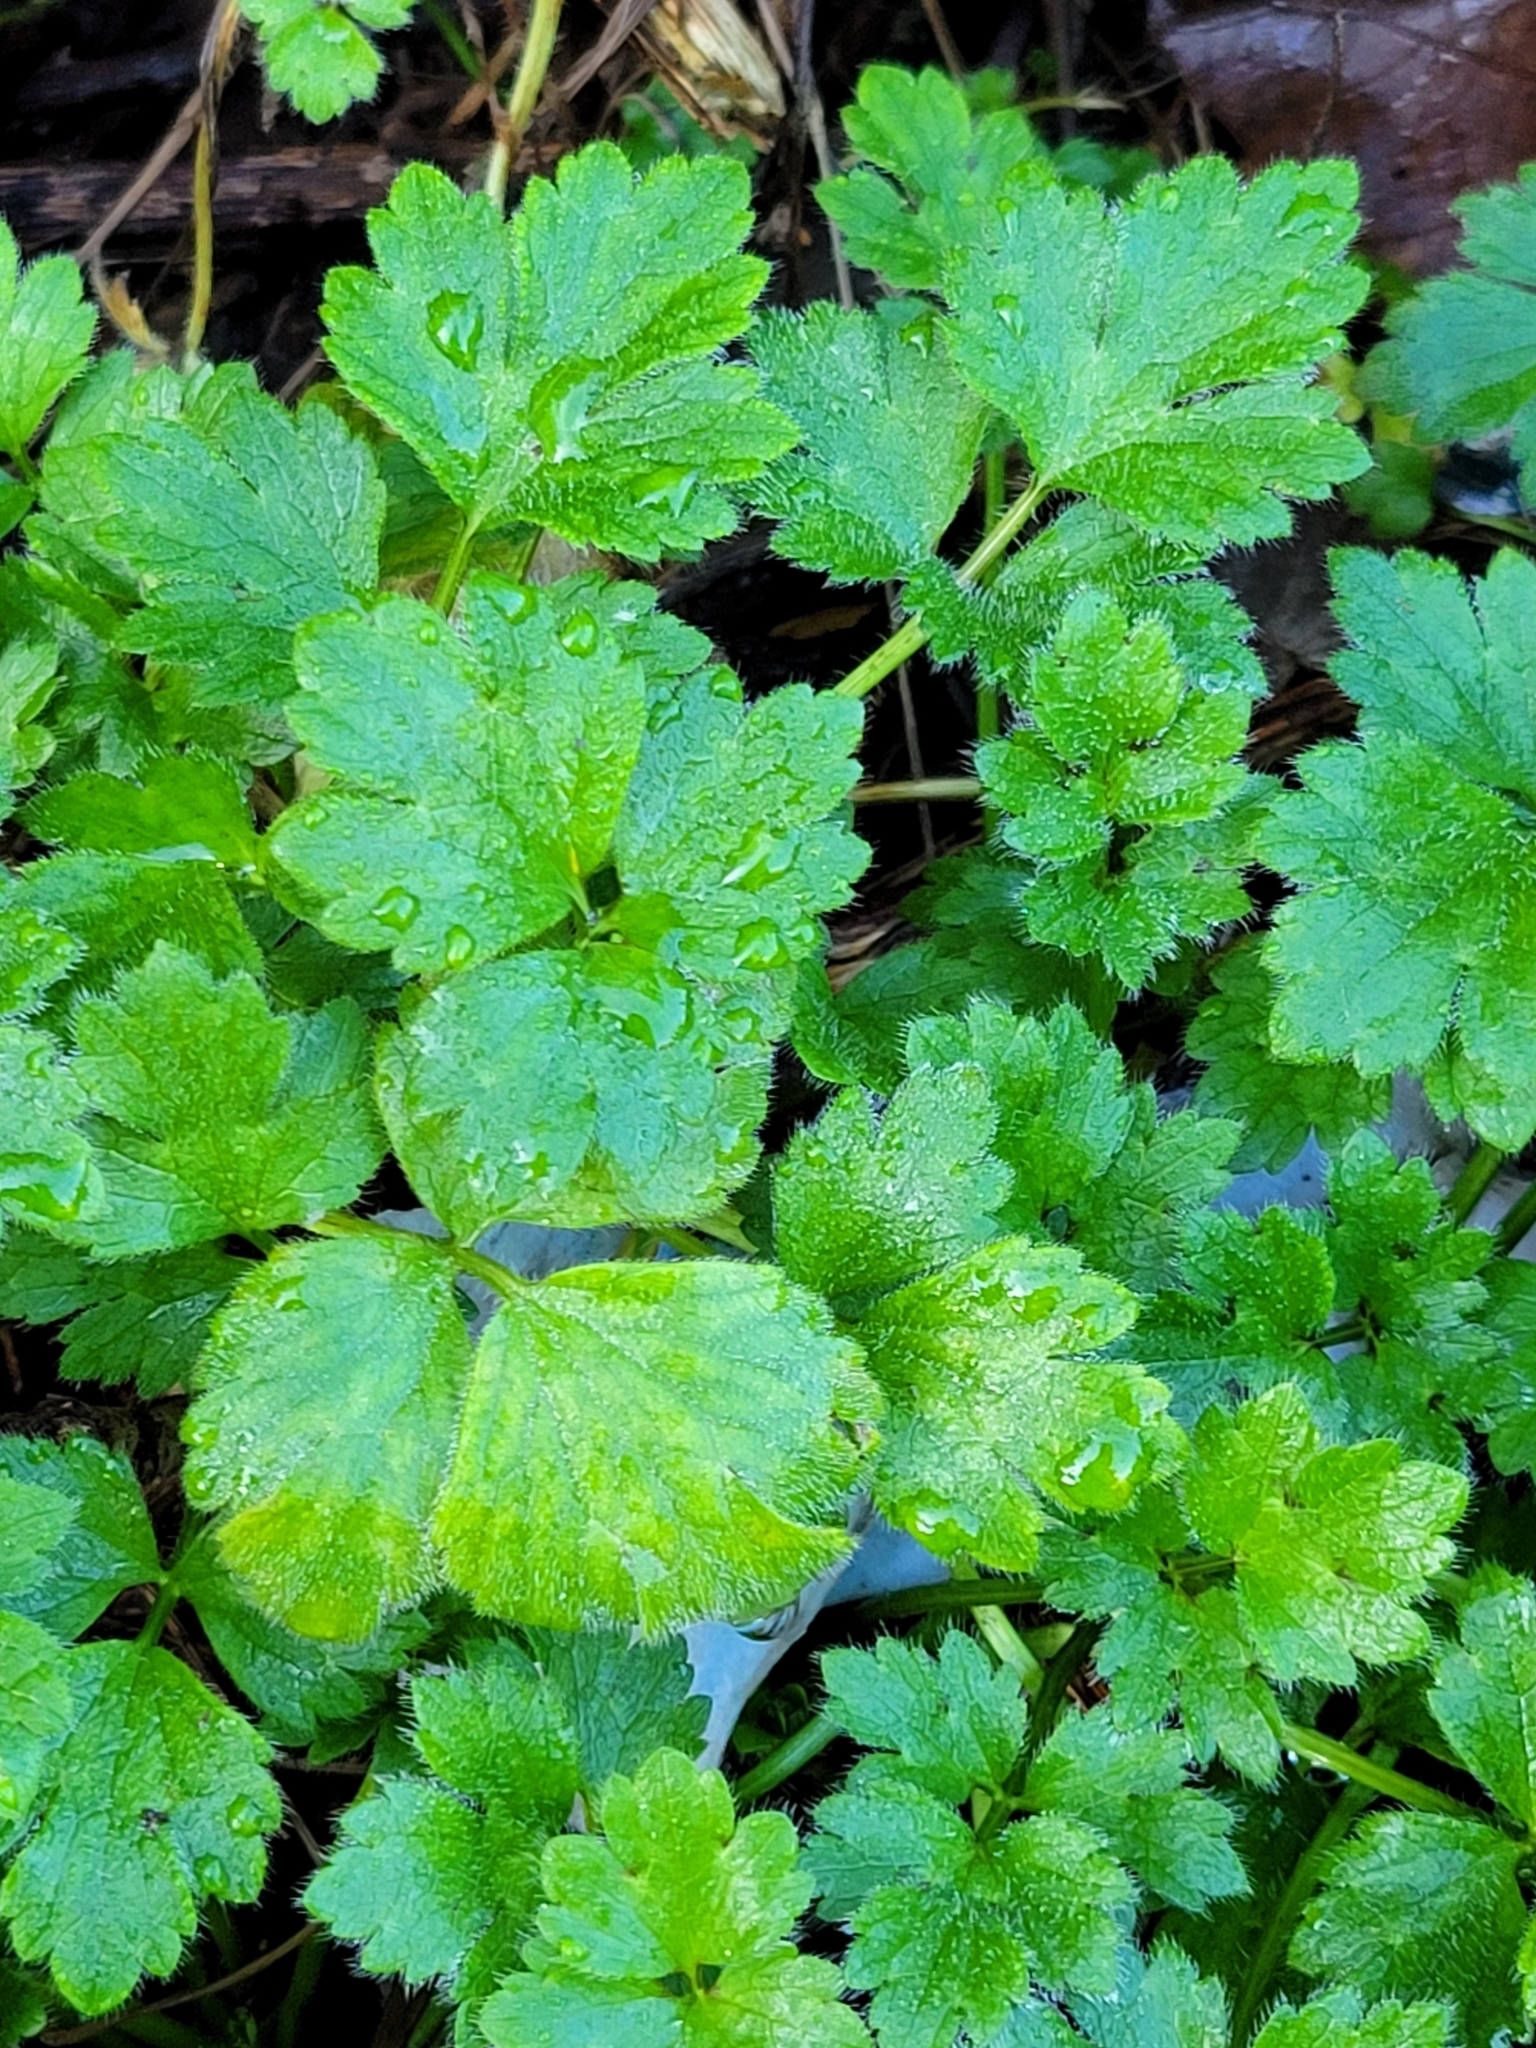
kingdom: Plantae
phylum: Tracheophyta
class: Magnoliopsida
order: Ranunculales
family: Ranunculaceae
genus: Ranunculus
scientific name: Ranunculus repens
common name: Creeping buttercup
